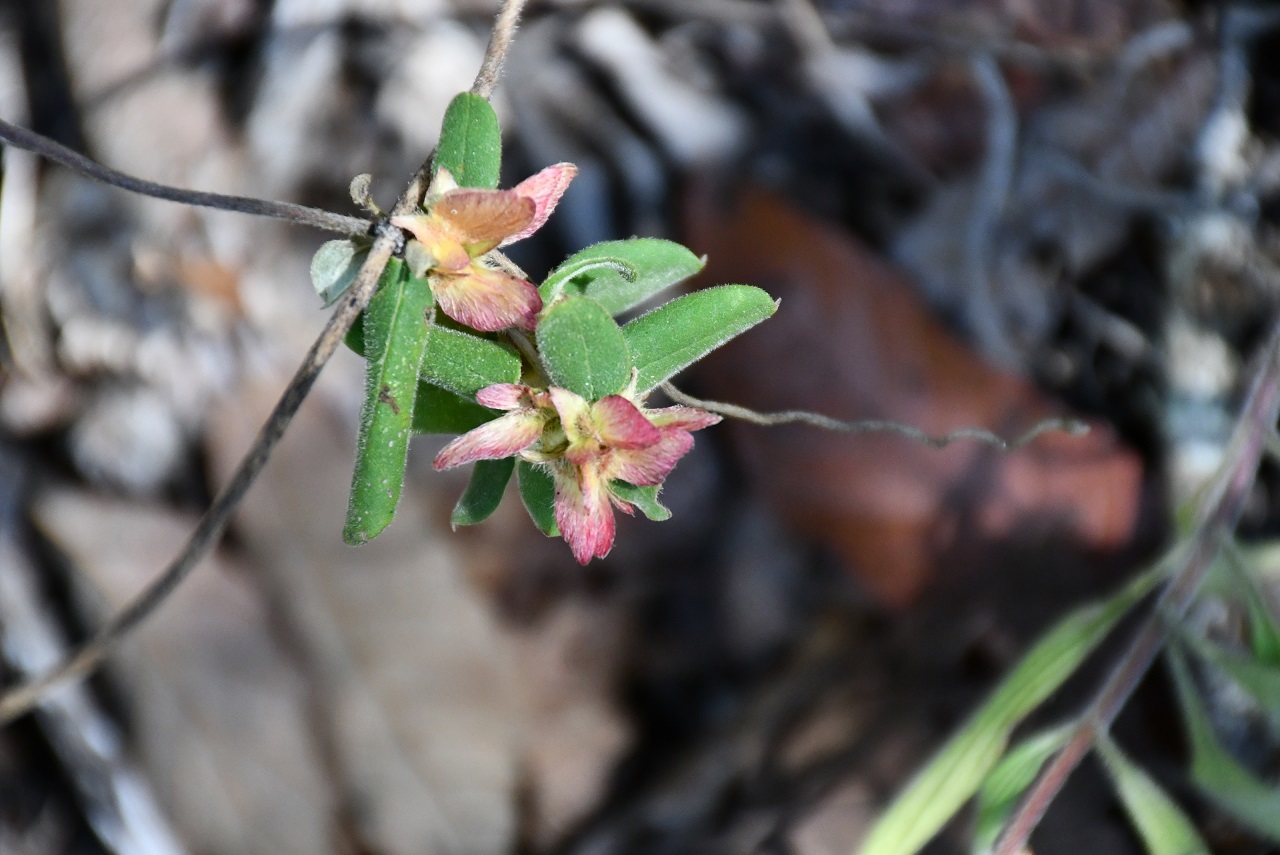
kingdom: Plantae
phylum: Tracheophyta
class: Magnoliopsida
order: Malpighiales
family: Malpighiaceae
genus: Gaudichaudia
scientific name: Gaudichaudia hexandra
